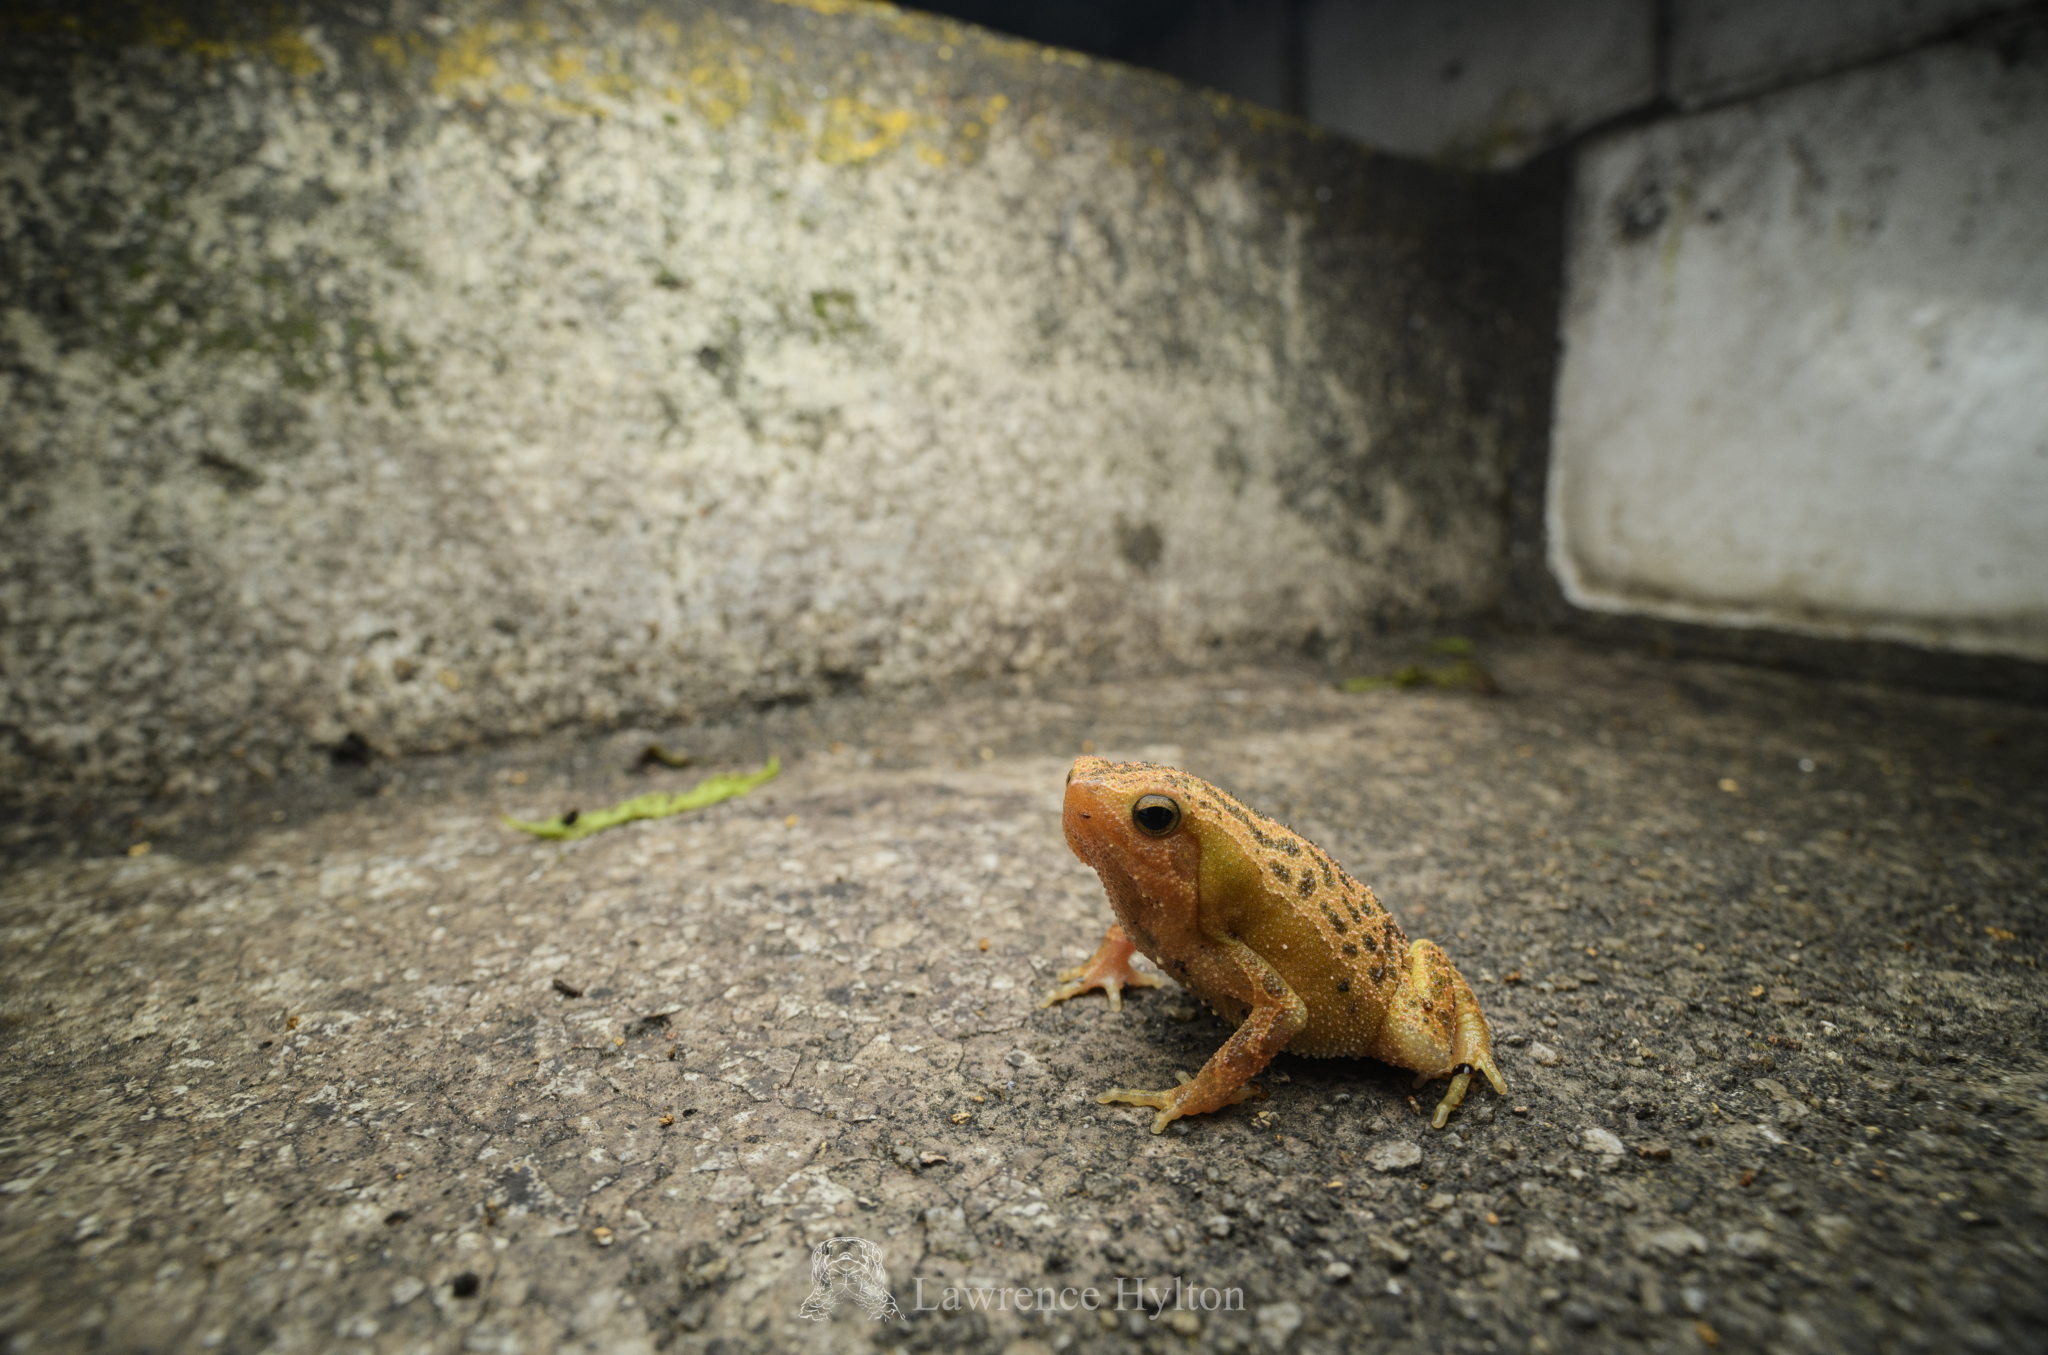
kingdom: Animalia
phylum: Chordata
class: Amphibia
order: Anura
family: Microhylidae
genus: Kalophrynus
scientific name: Kalophrynus interlineatus
